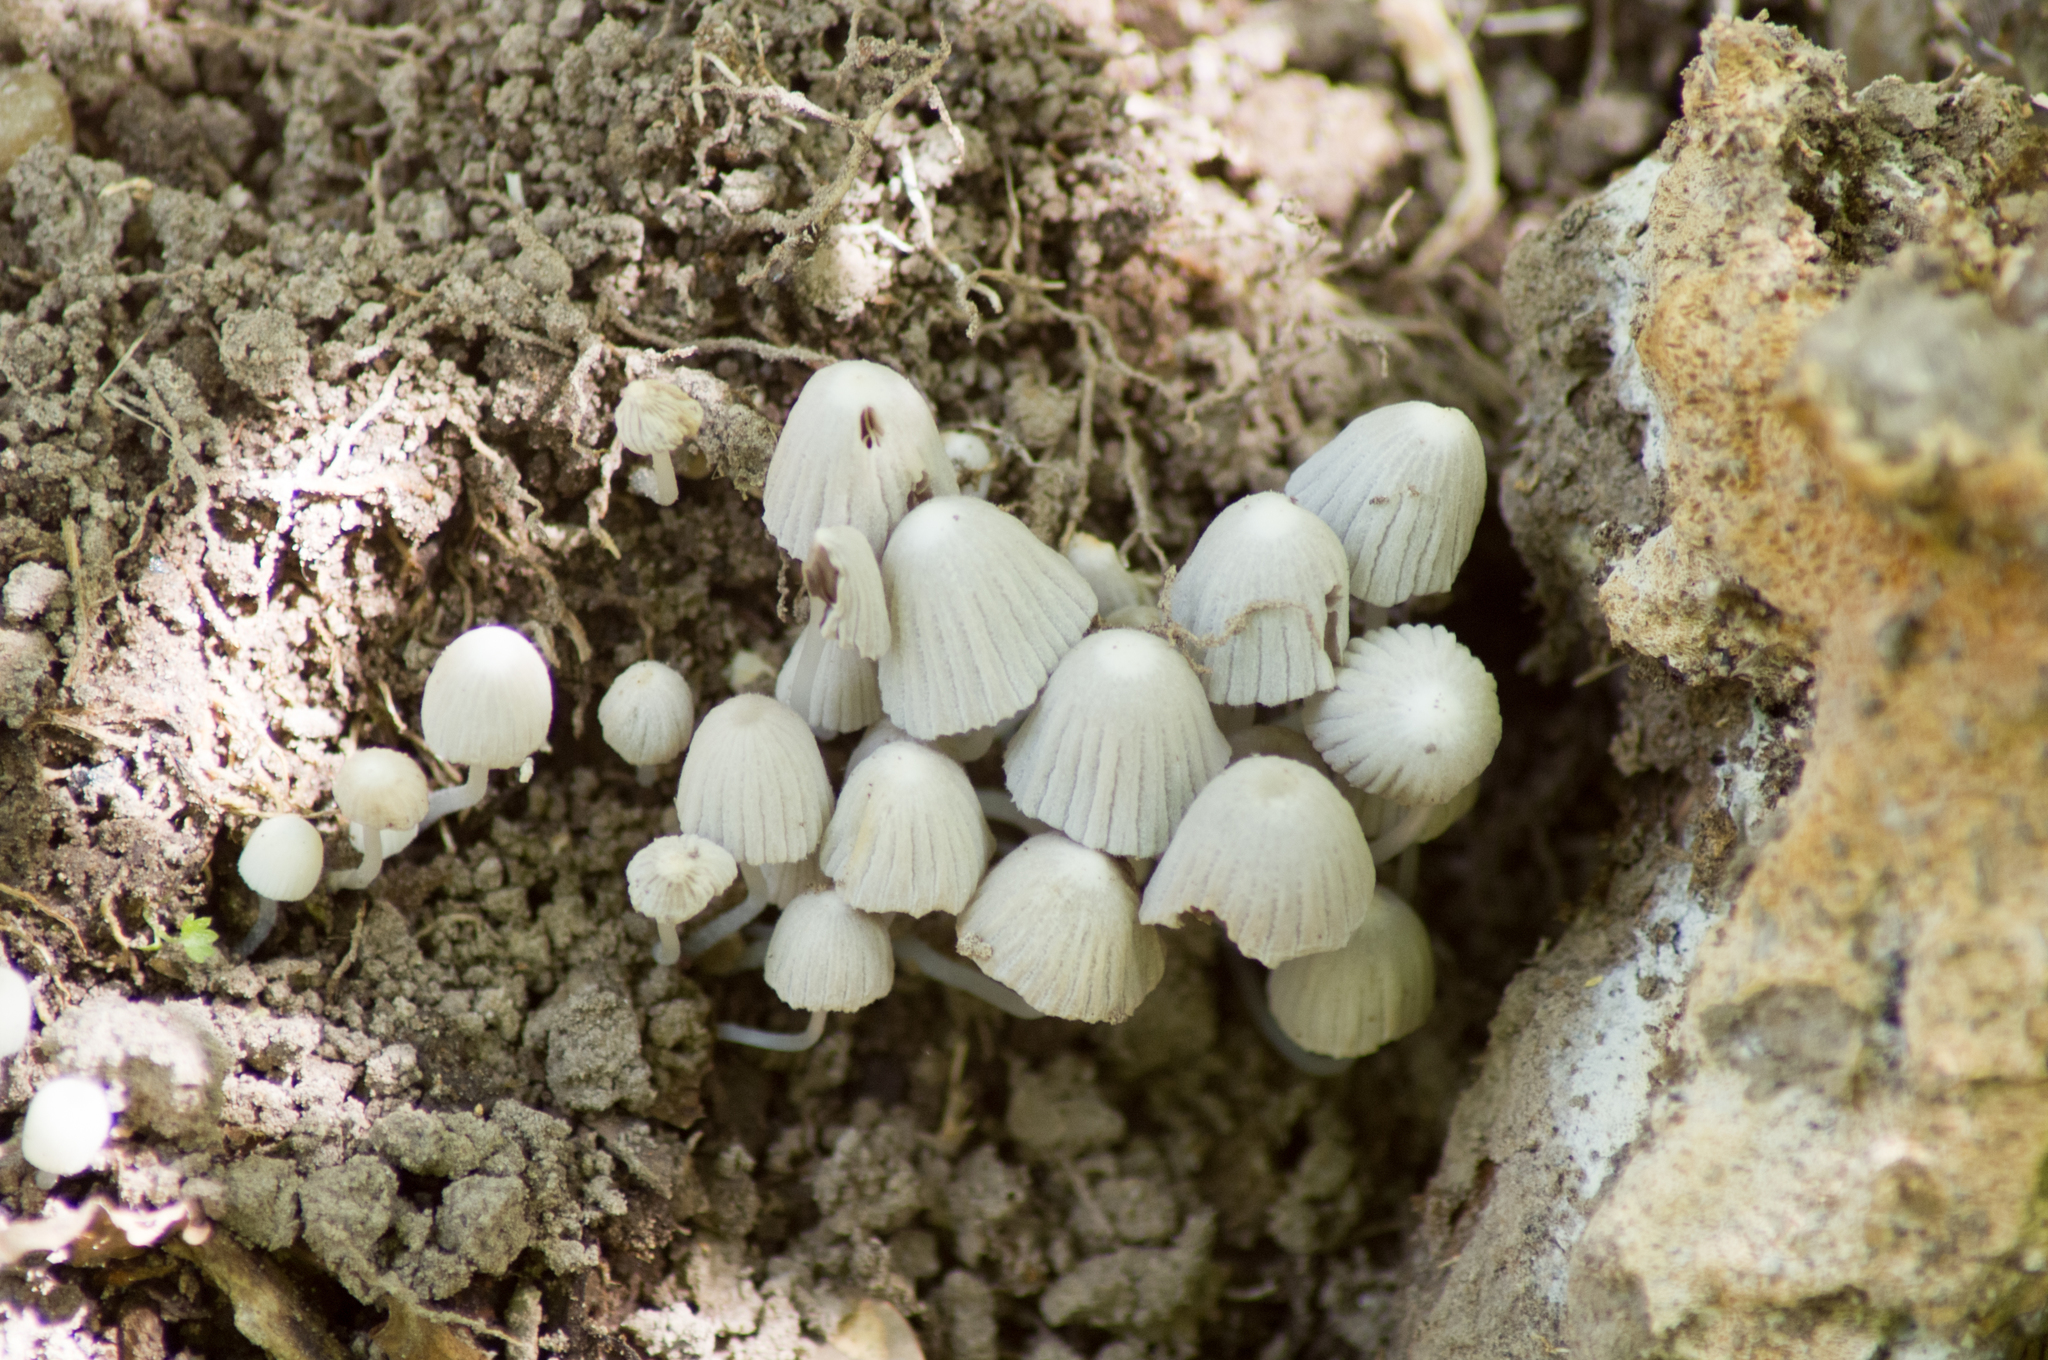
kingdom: Fungi
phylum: Basidiomycota
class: Agaricomycetes
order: Agaricales
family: Psathyrellaceae
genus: Coprinellus
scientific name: Coprinellus disseminatus
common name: Fairies' bonnets
